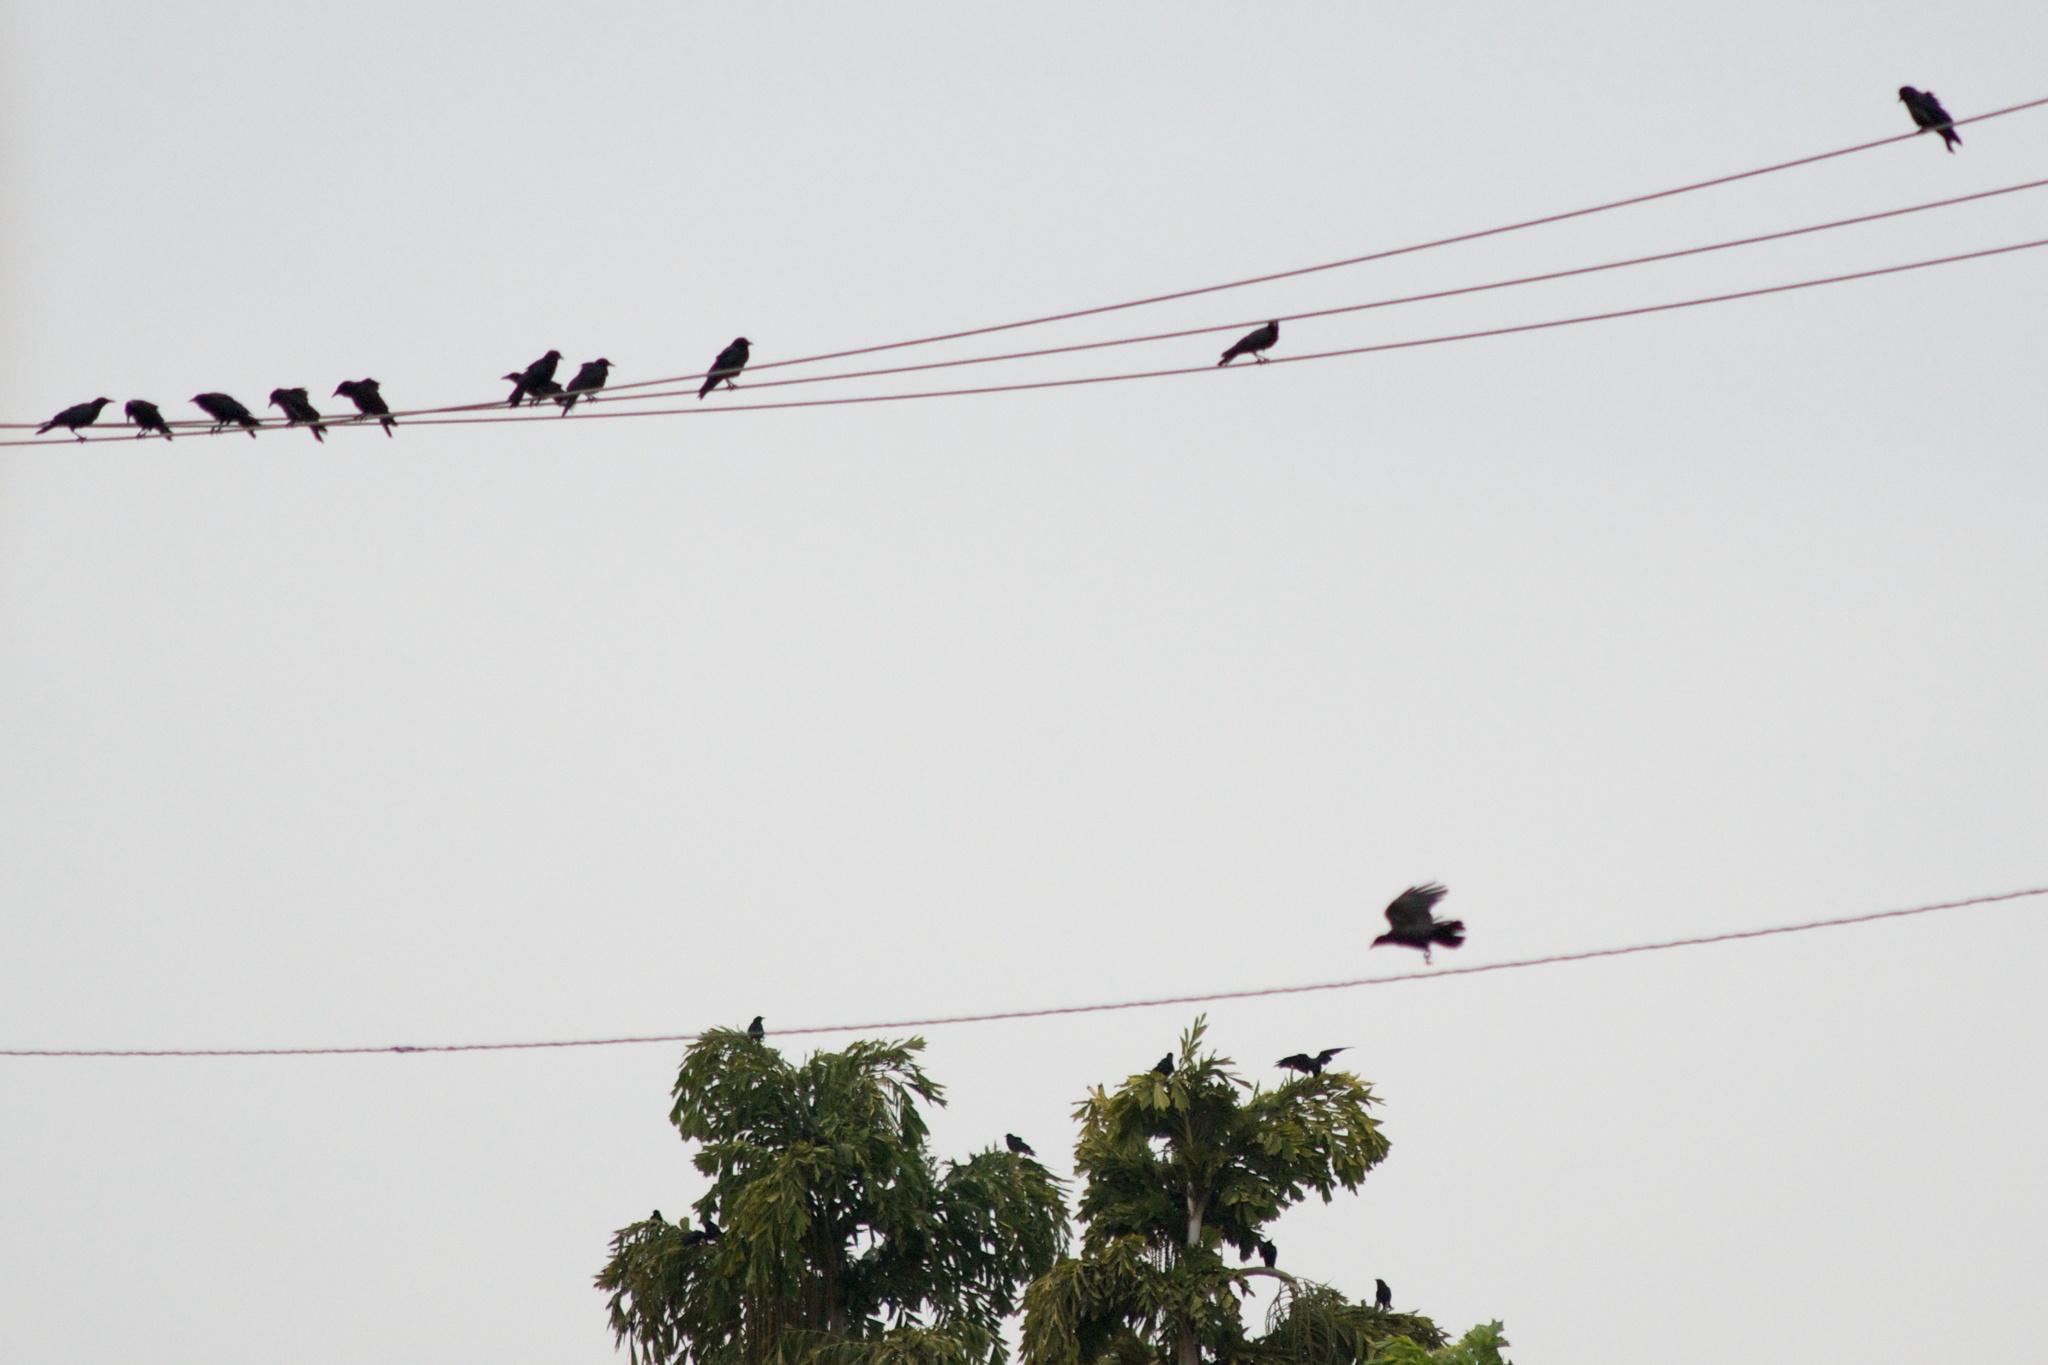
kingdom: Animalia
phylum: Chordata
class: Aves
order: Passeriformes
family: Corvidae
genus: Corvus
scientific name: Corvus brachyrhynchos
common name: American crow
